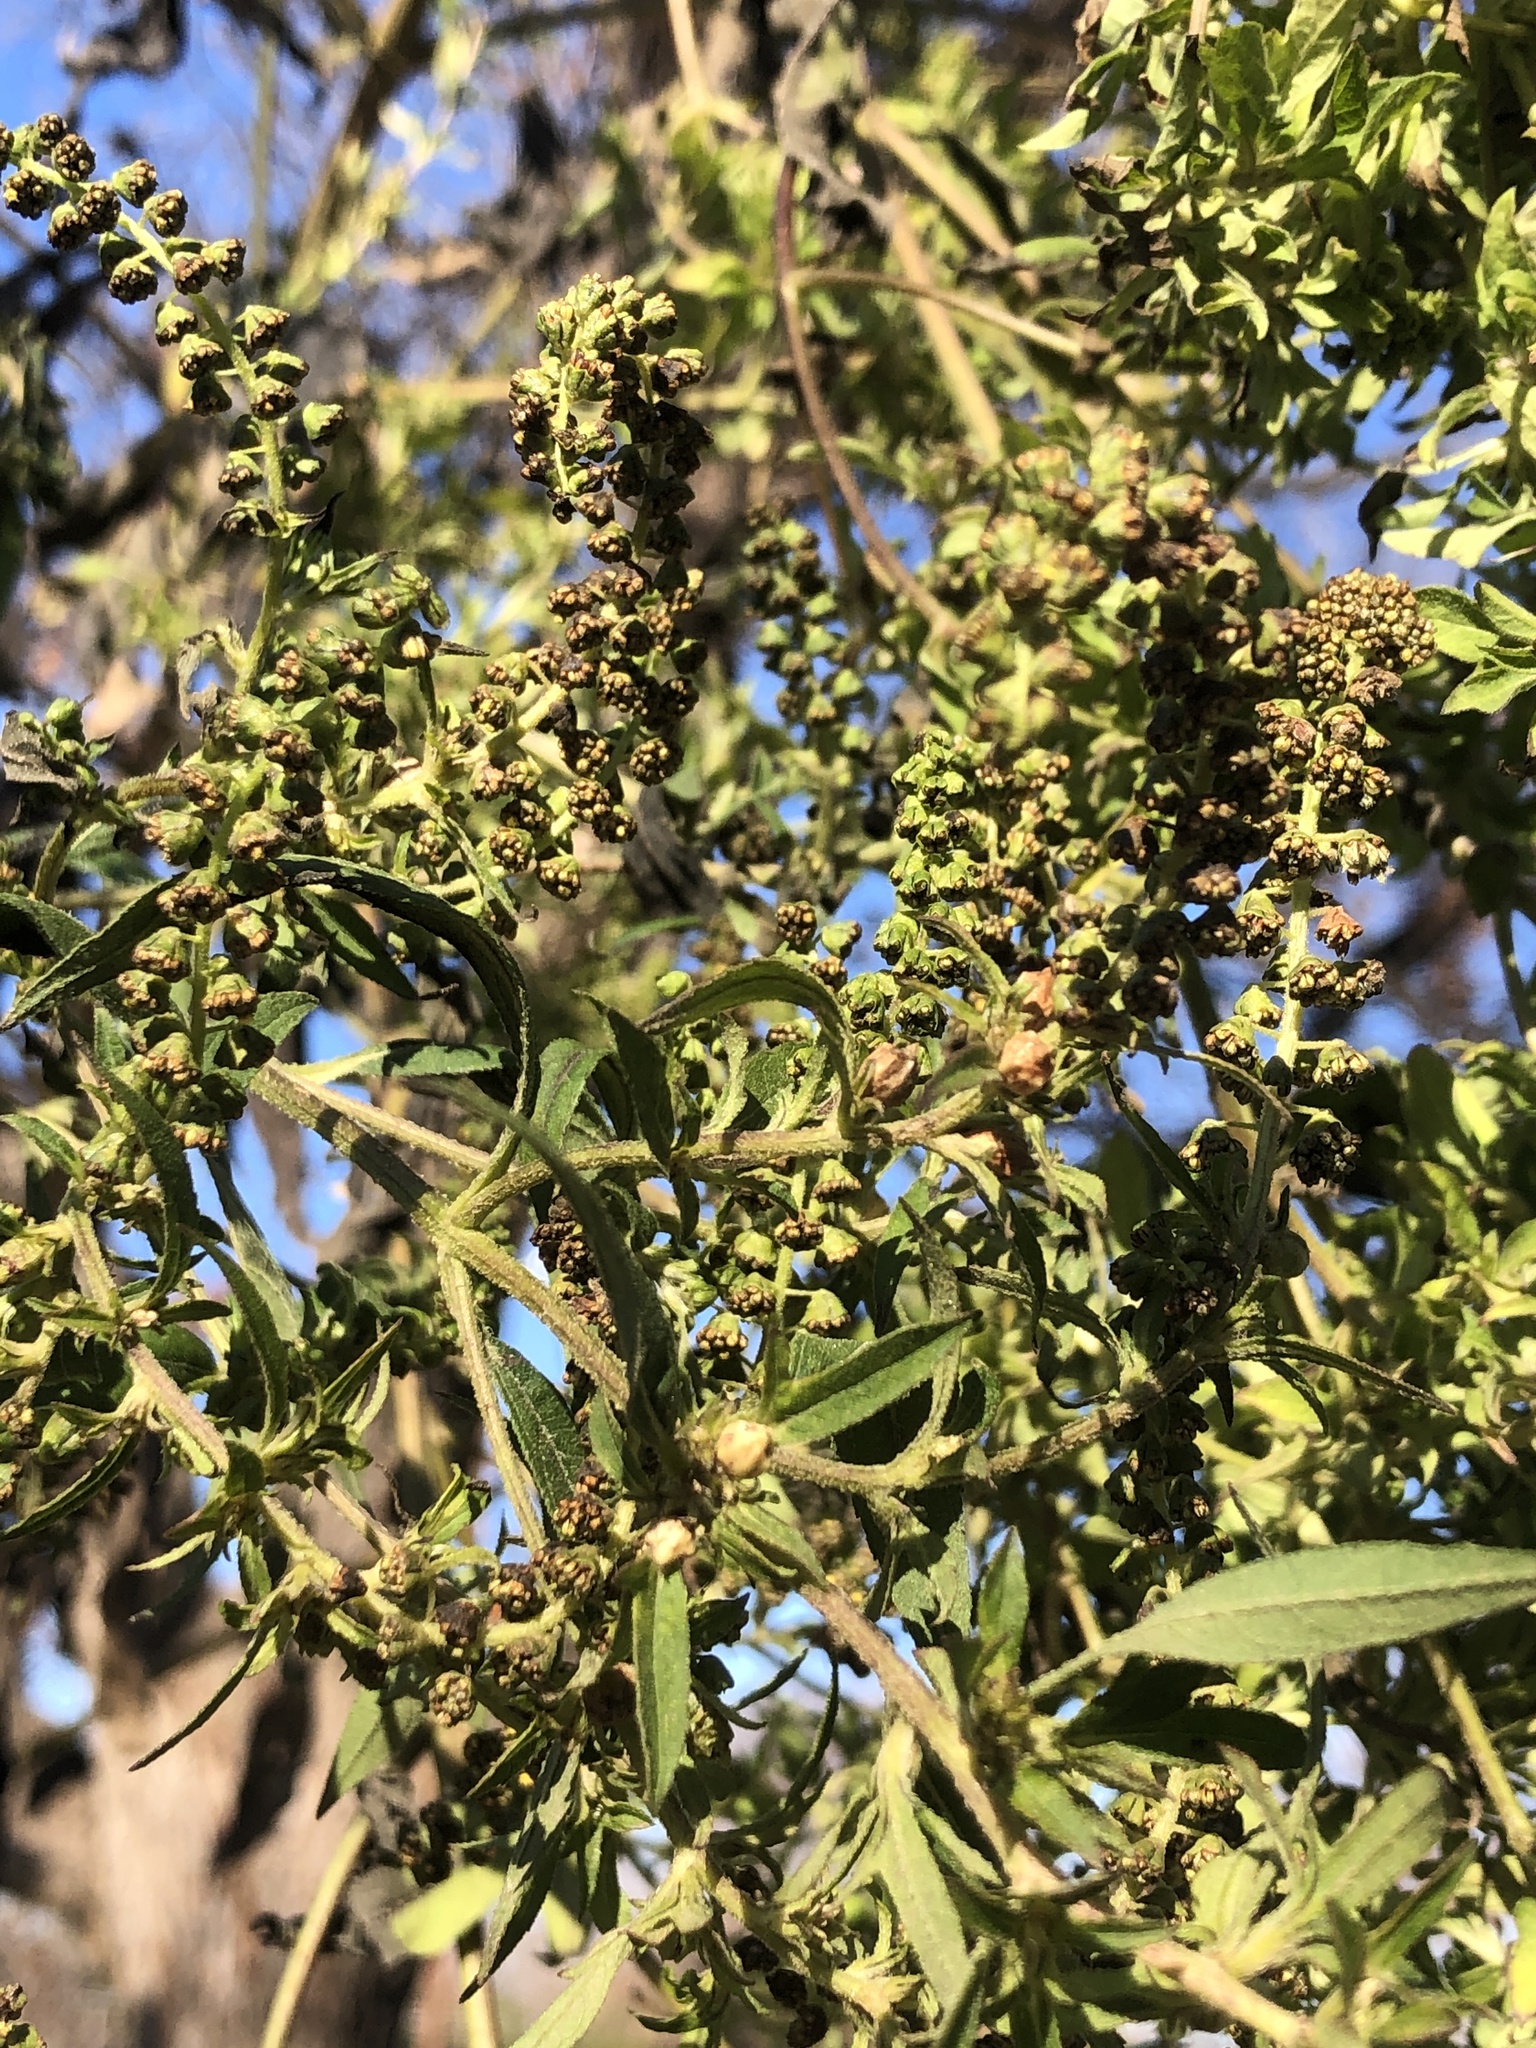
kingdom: Plantae
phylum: Tracheophyta
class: Magnoliopsida
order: Asterales
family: Asteraceae
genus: Ambrosia
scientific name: Ambrosia trifida
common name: Giant ragweed
